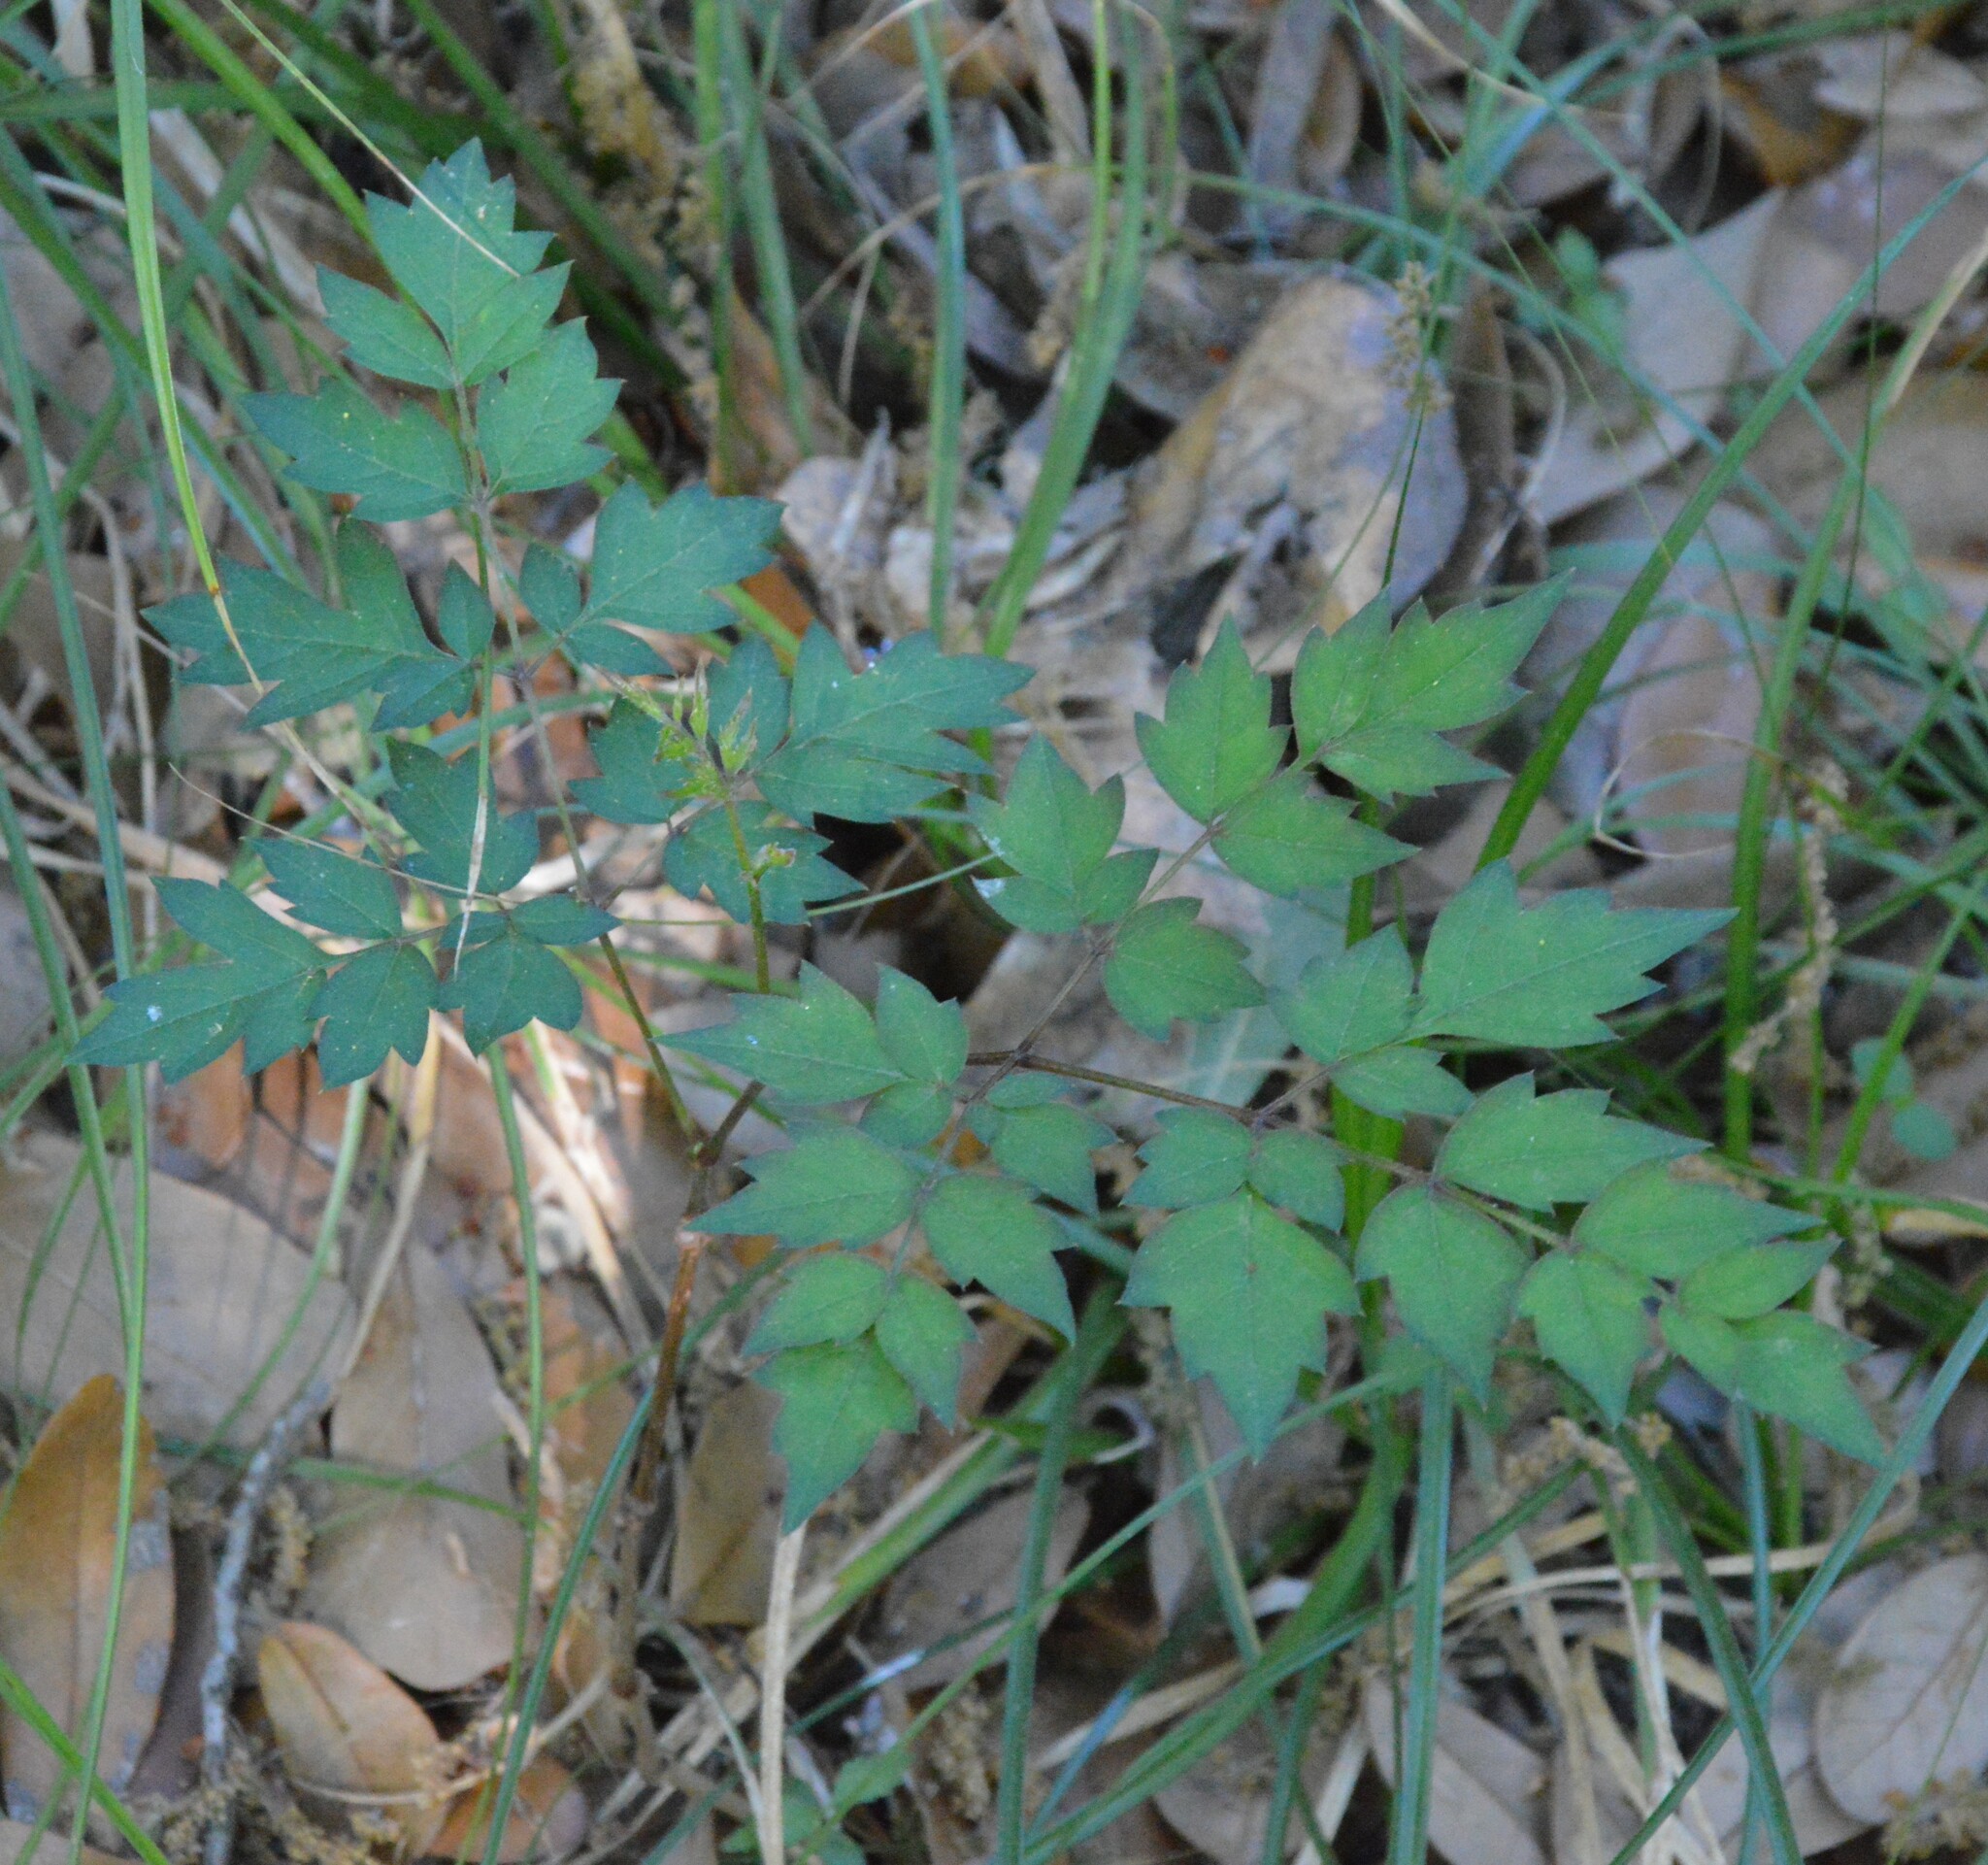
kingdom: Plantae
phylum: Tracheophyta
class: Magnoliopsida
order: Vitales
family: Vitaceae
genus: Nekemias
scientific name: Nekemias arborea
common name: Peppervine
